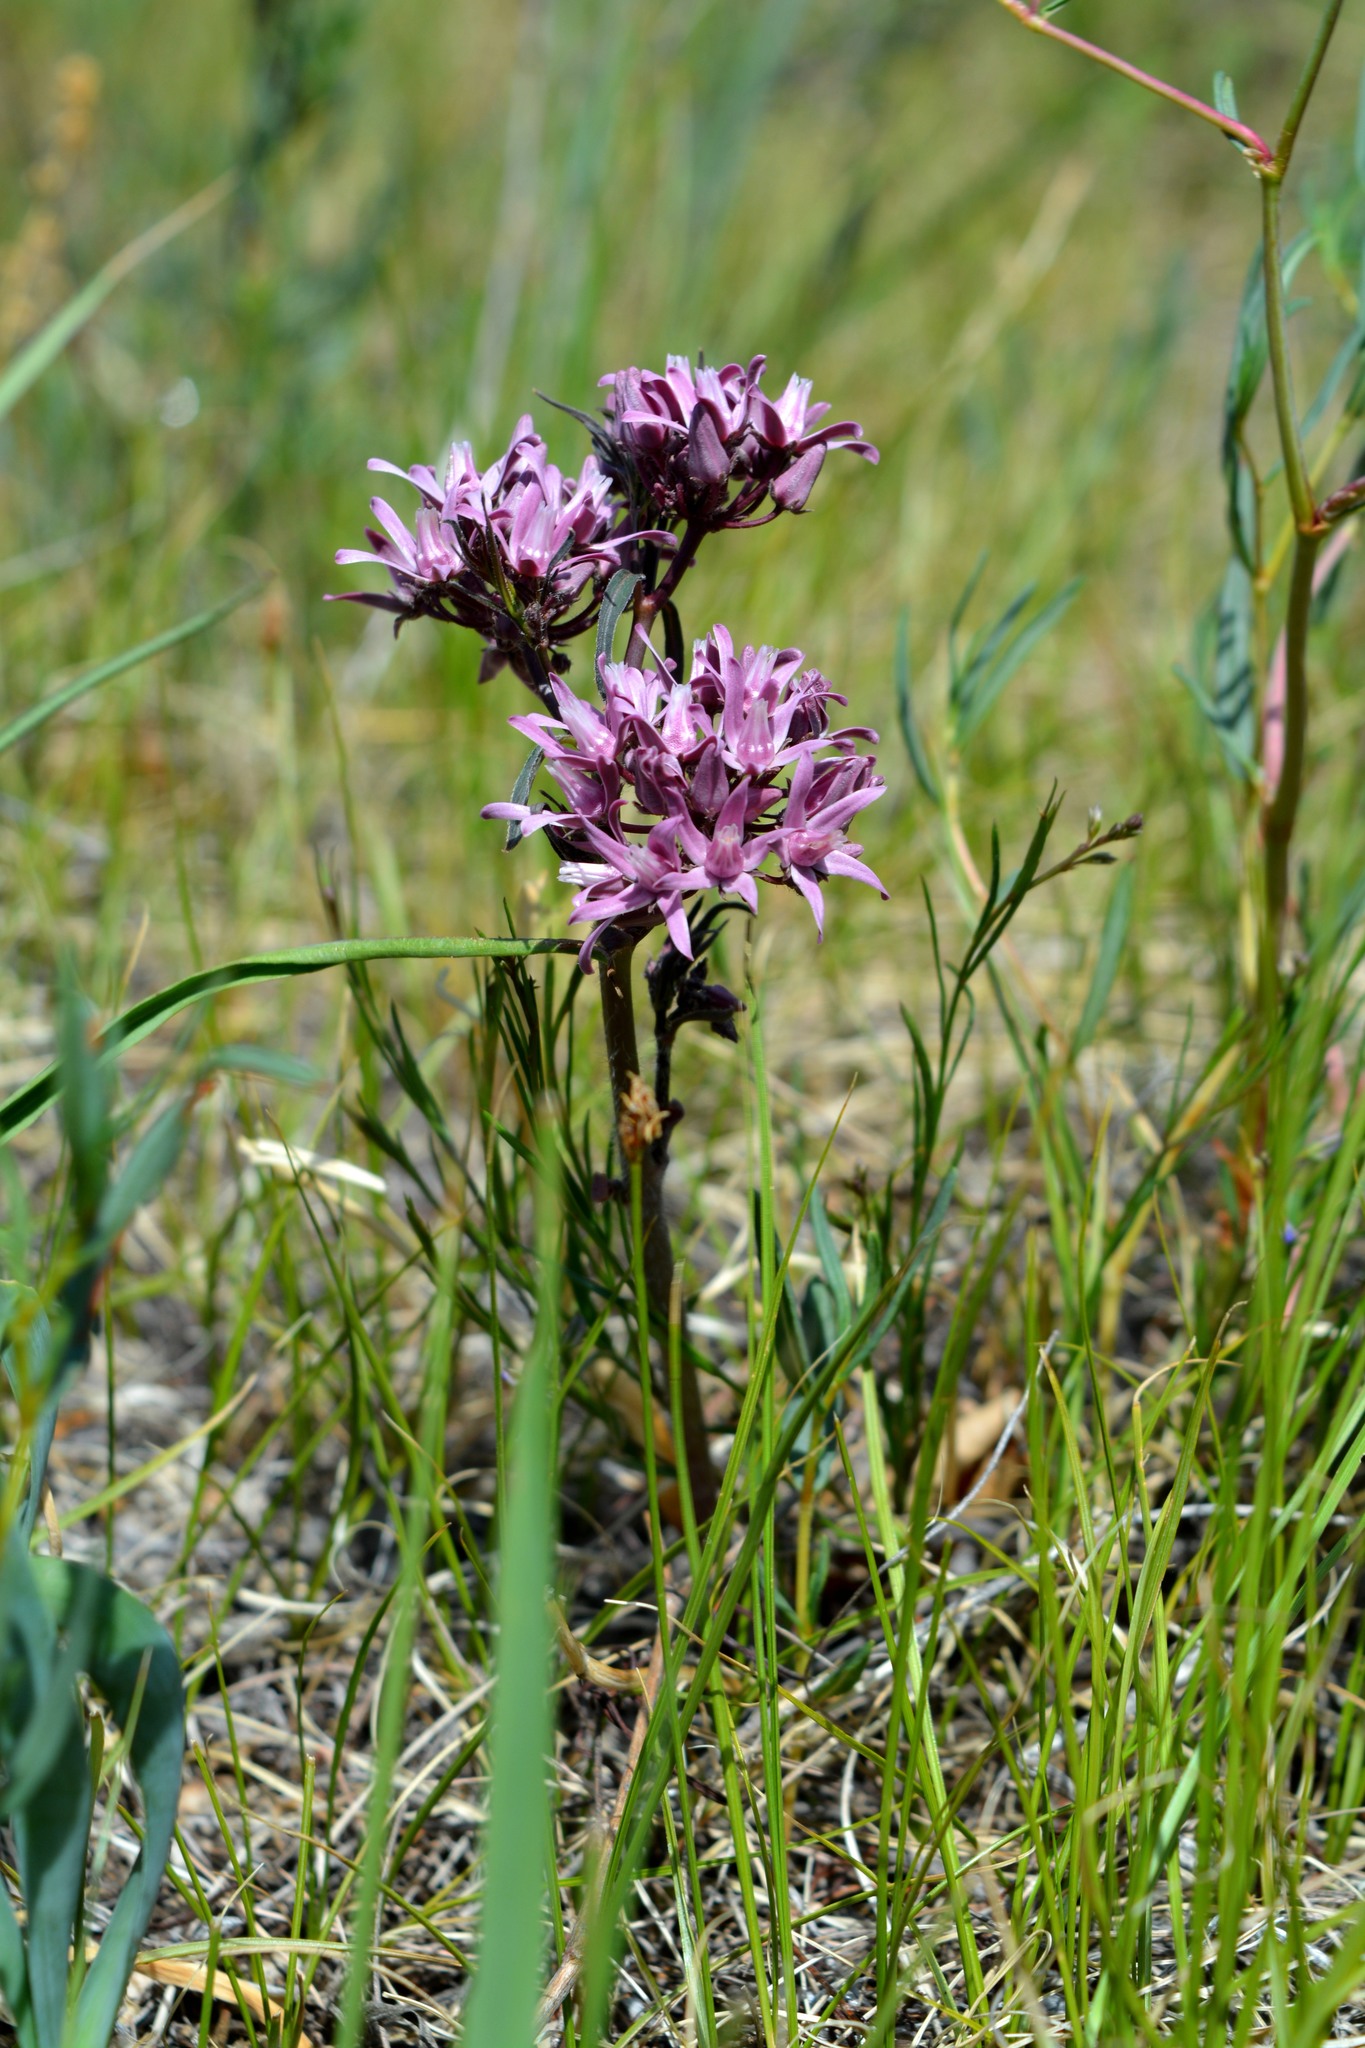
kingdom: Plantae
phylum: Tracheophyta
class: Magnoliopsida
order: Gentianales
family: Apocynaceae
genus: Vincetoxicum
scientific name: Vincetoxicum purpureum
